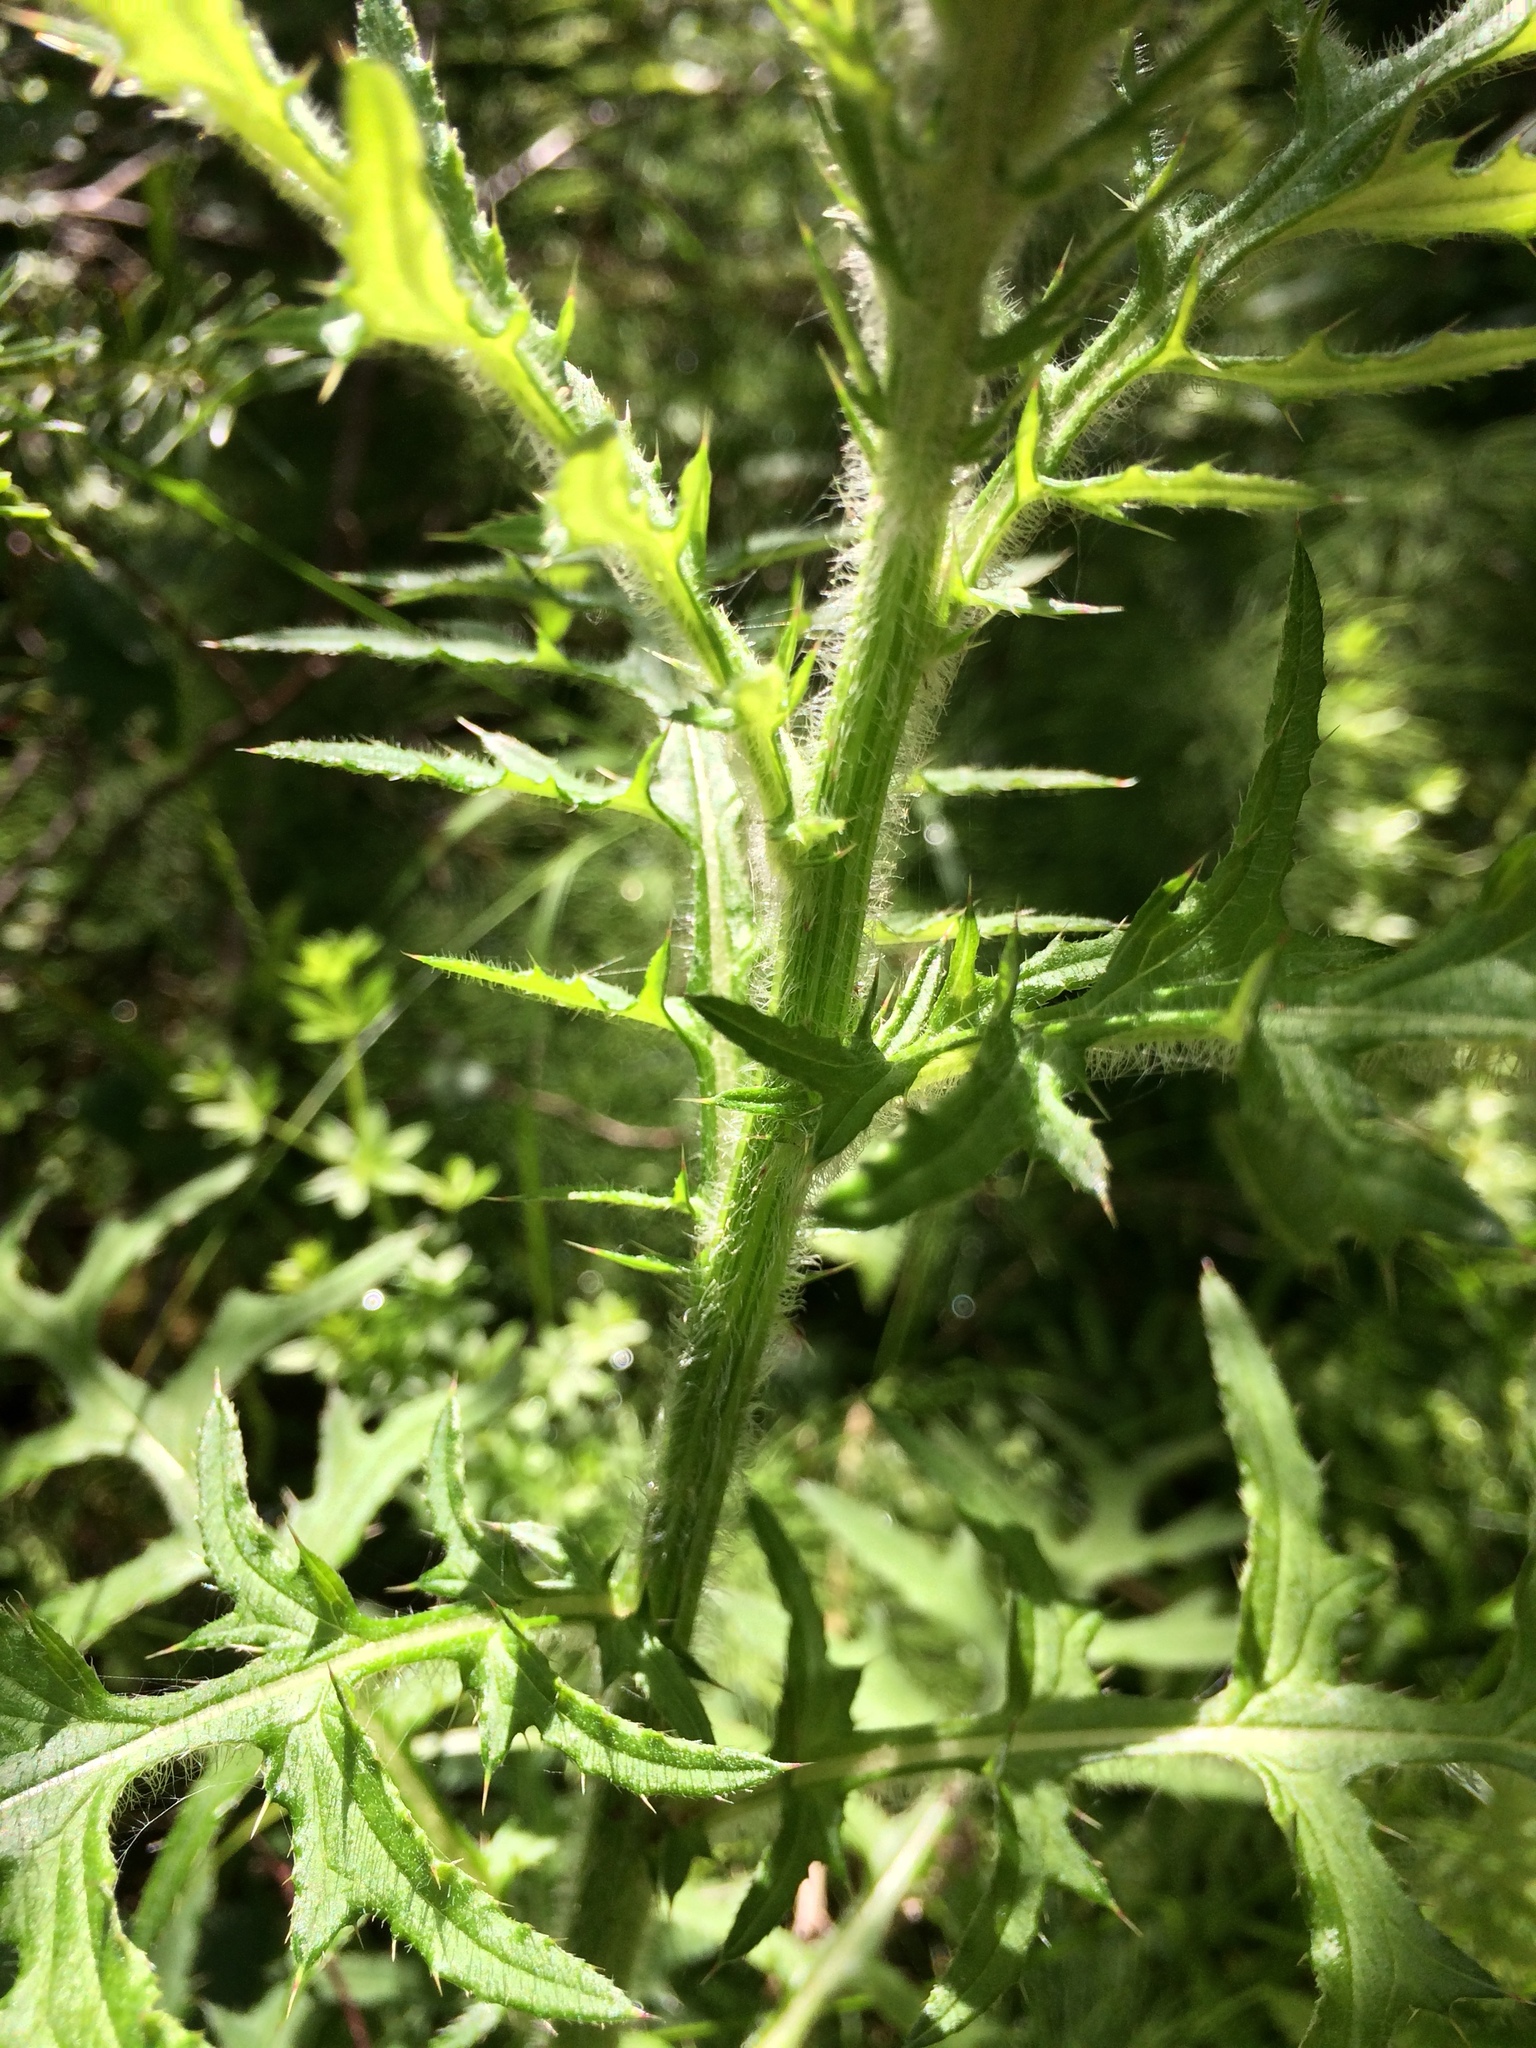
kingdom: Plantae
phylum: Tracheophyta
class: Magnoliopsida
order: Asterales
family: Asteraceae
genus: Cirsium
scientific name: Cirsium muticum
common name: Dunce-nettle
